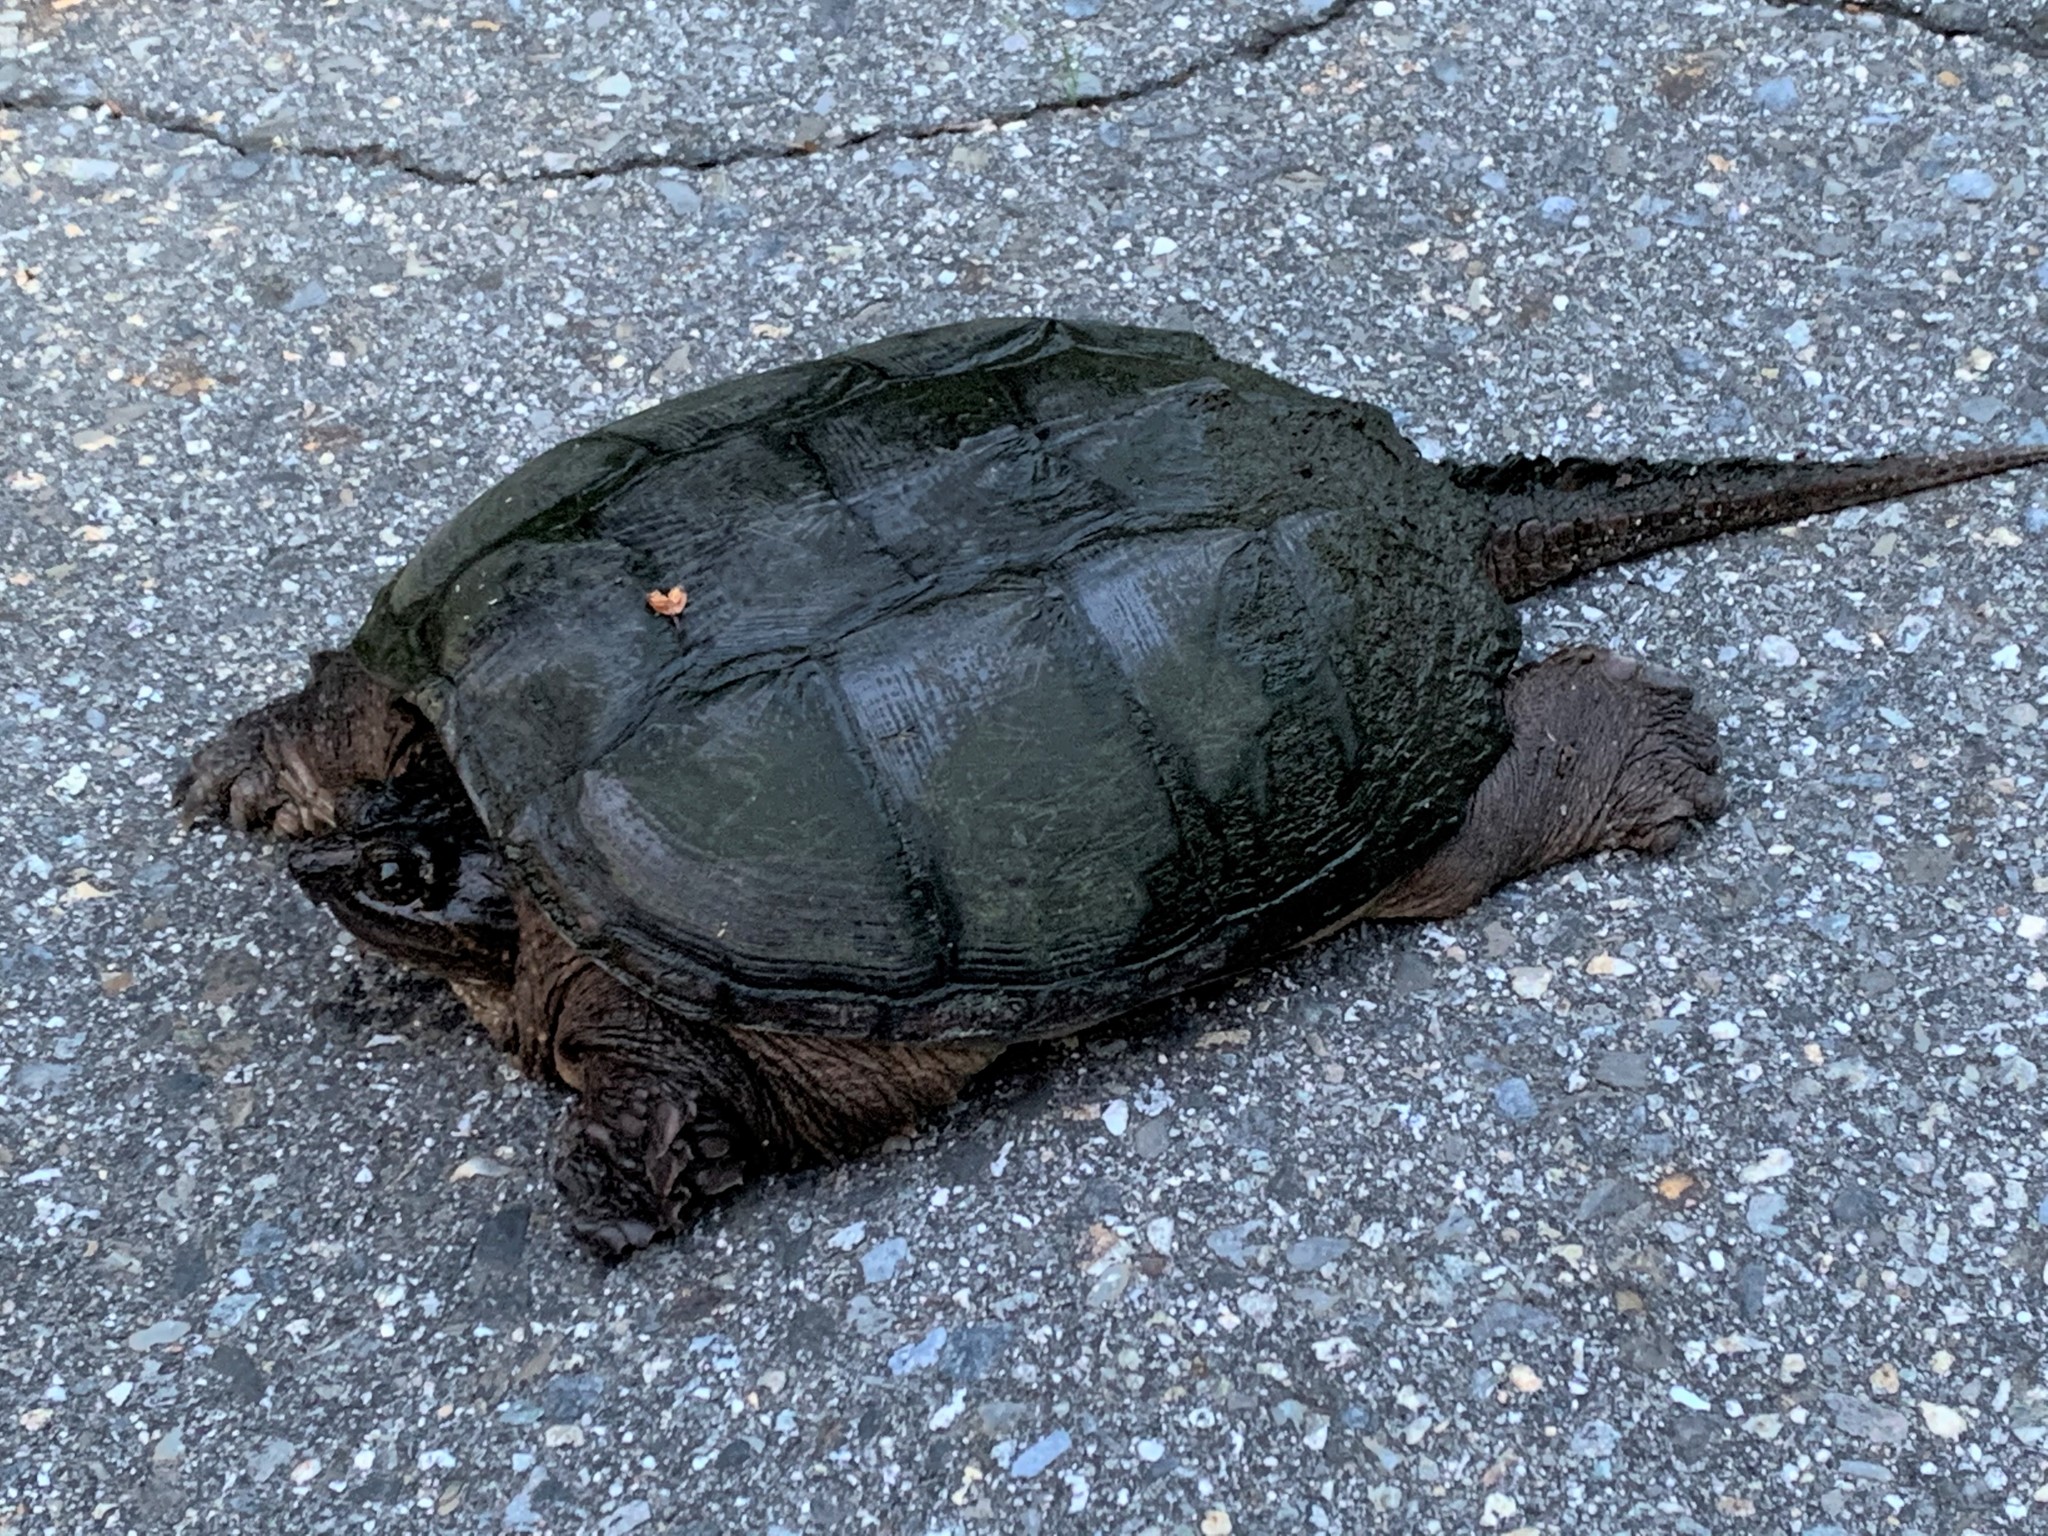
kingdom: Animalia
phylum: Chordata
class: Testudines
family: Chelydridae
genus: Chelydra
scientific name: Chelydra serpentina
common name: Common snapping turtle
